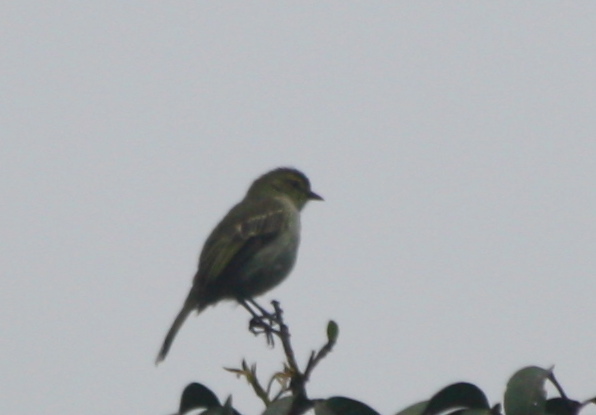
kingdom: Animalia
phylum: Chordata
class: Aves
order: Passeriformes
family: Tyrannidae
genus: Zimmerius
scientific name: Zimmerius chrysops
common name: Golden-faced tyrannulet
